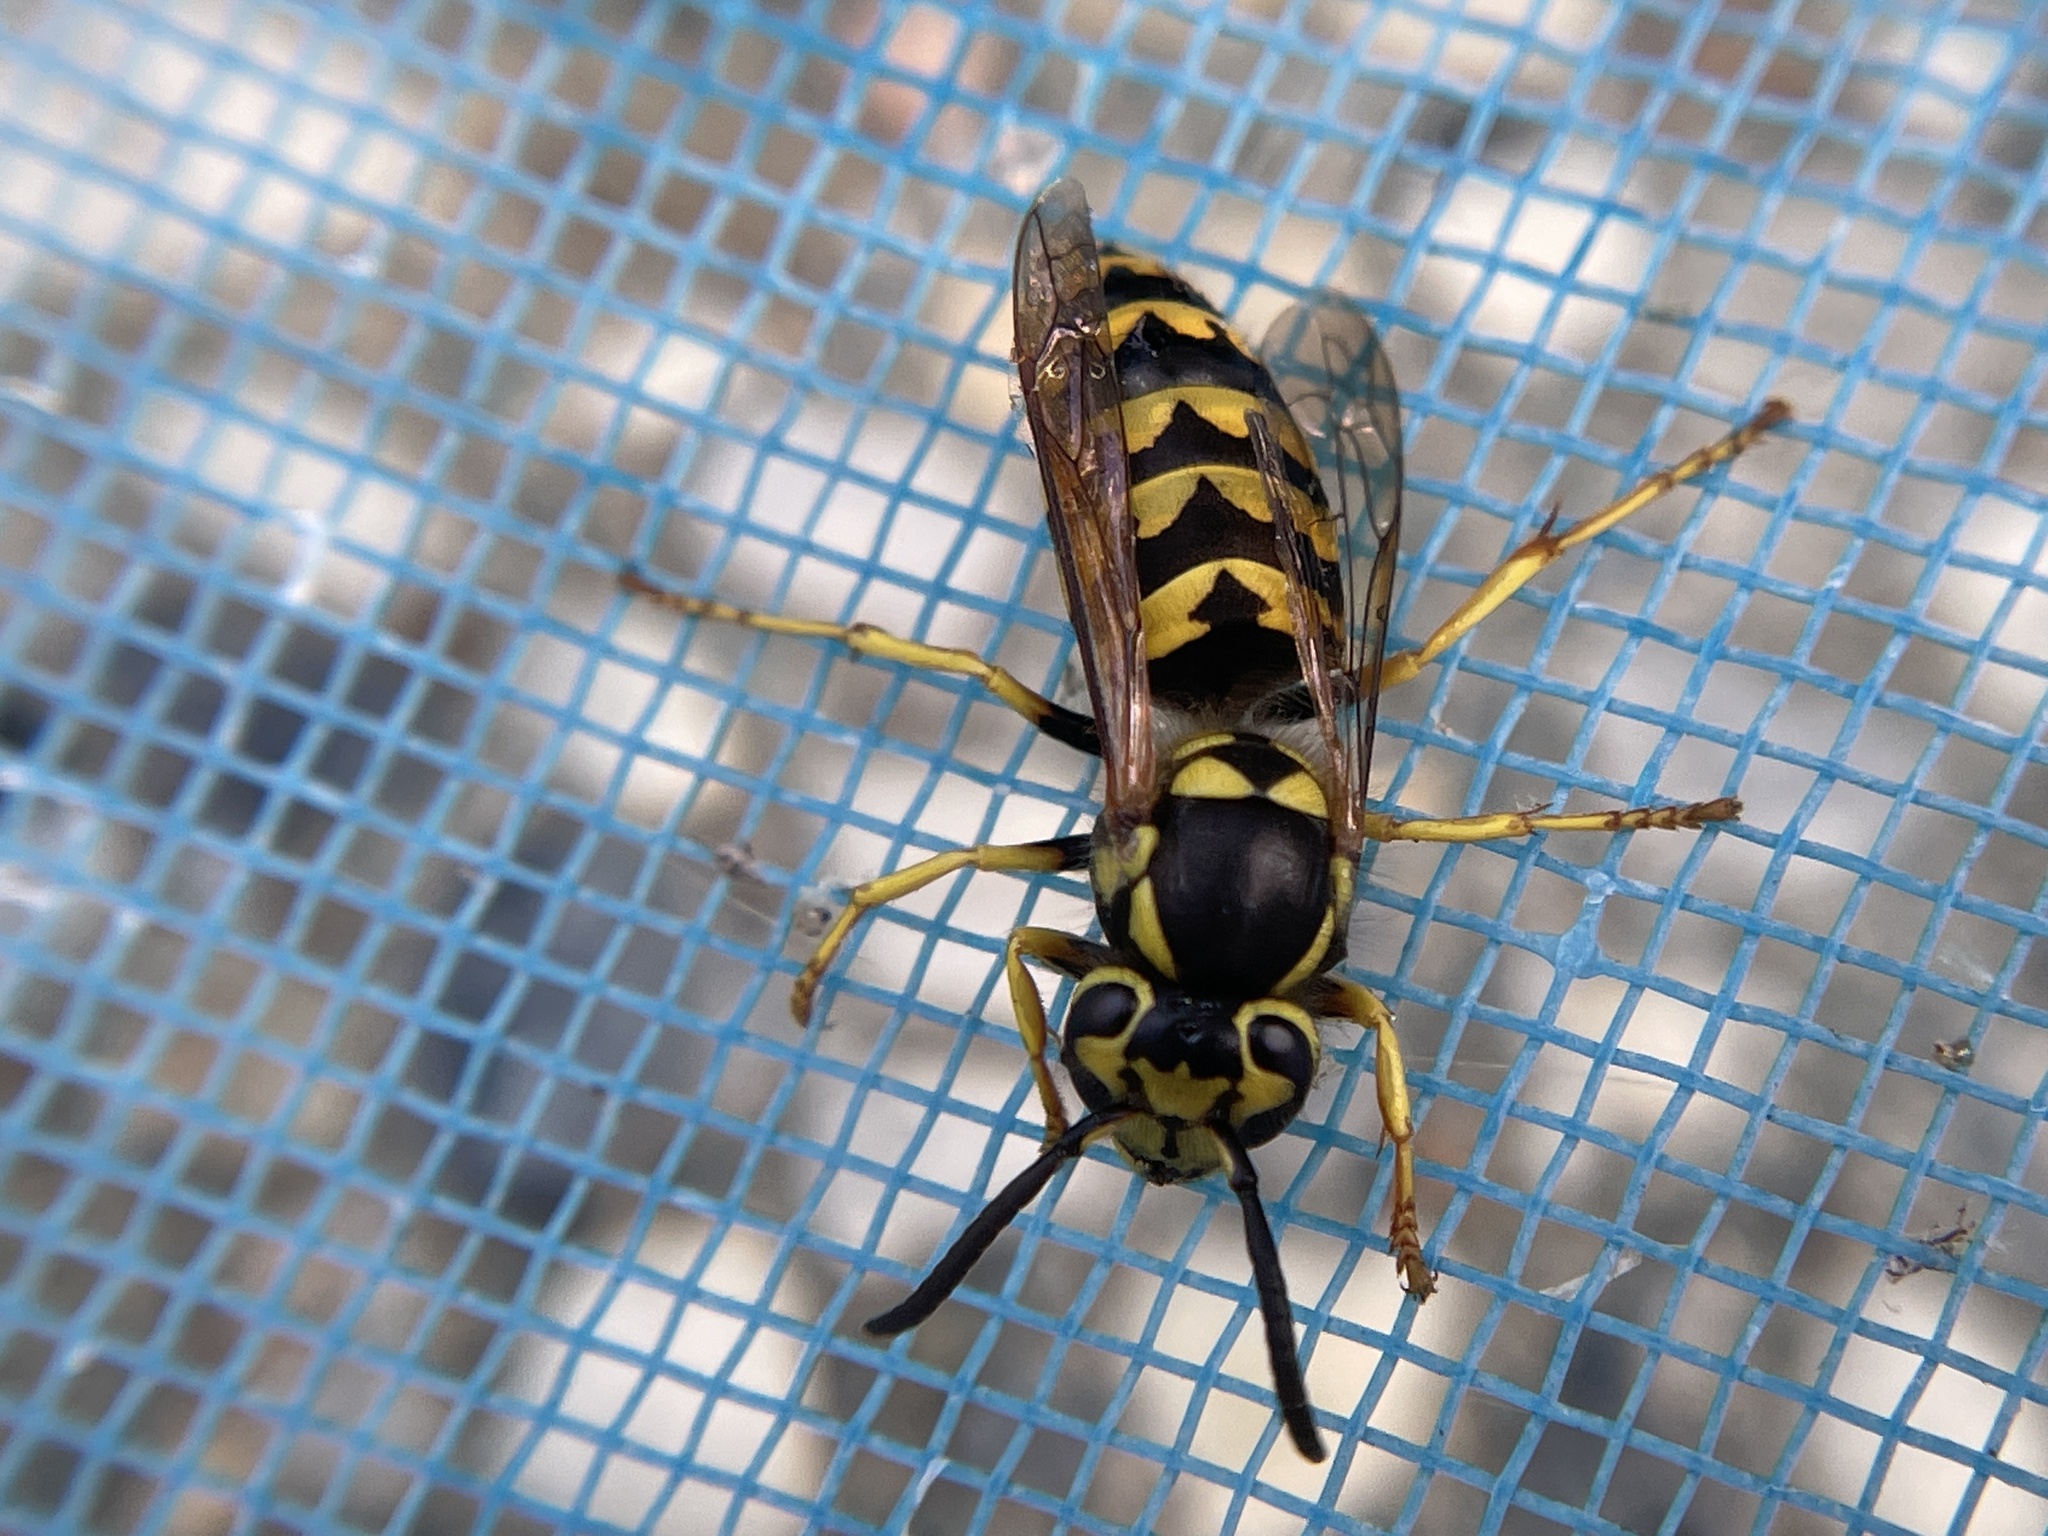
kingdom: Animalia
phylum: Arthropoda
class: Insecta
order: Hymenoptera
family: Vespidae
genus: Vespula
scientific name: Vespula pensylvanica
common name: Western yellowjacket
